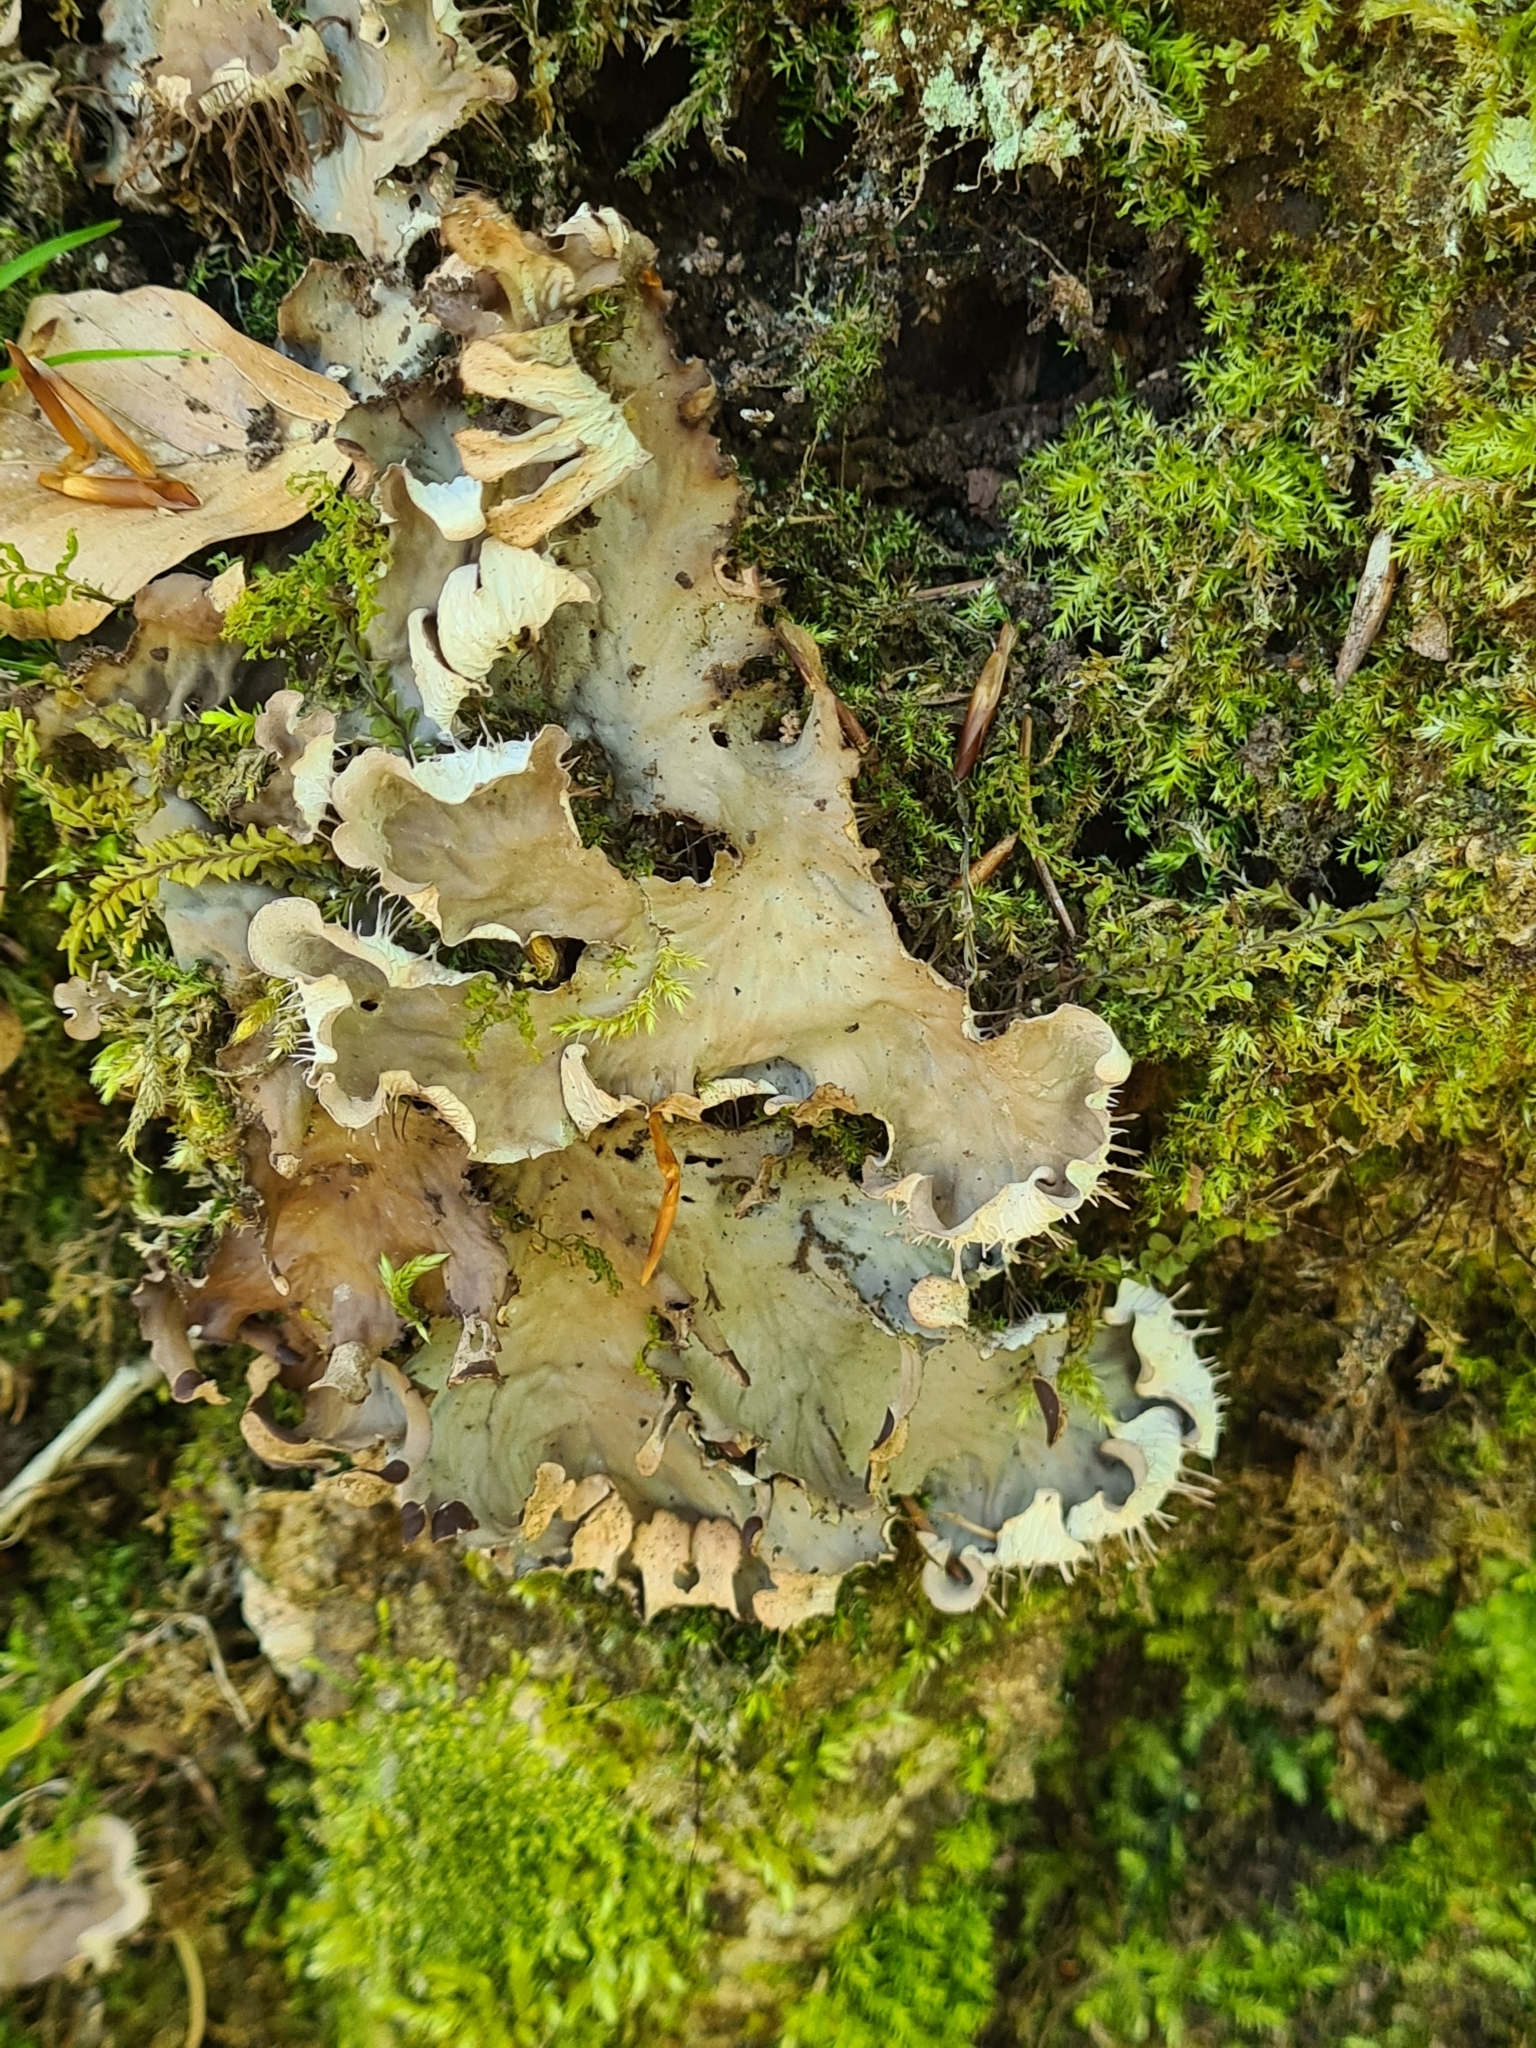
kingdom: Fungi
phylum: Ascomycota
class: Lecanoromycetes
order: Peltigerales
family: Peltigeraceae
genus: Peltigera
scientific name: Peltigera praetextata
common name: Scaly dog-lichen
